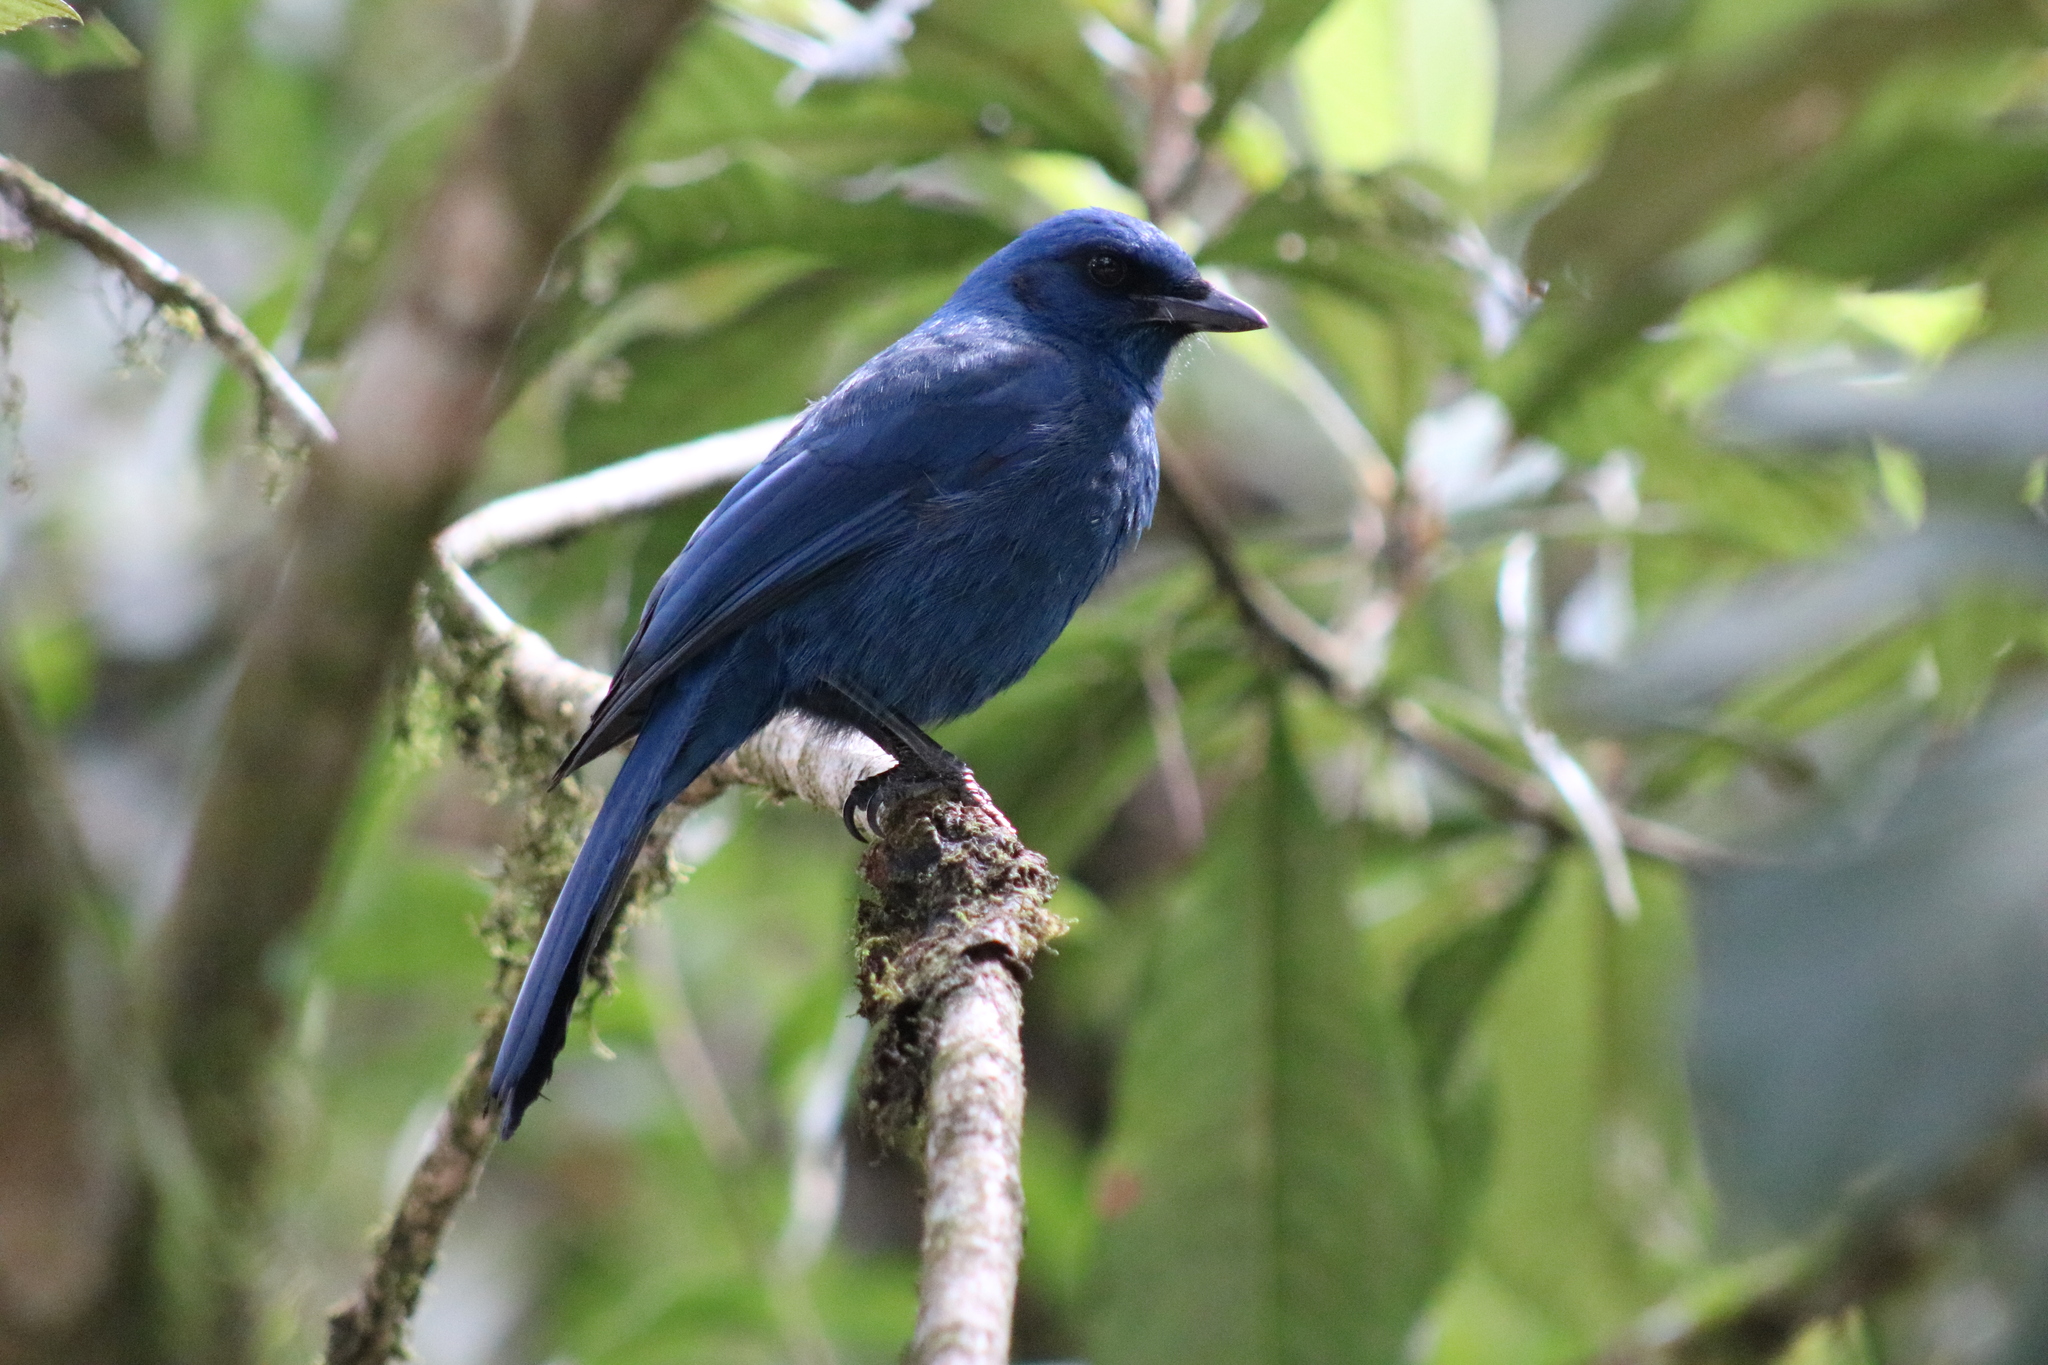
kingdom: Animalia
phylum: Chordata
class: Aves
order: Passeriformes
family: Corvidae
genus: Aphelocoma
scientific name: Aphelocoma unicolor
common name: Unicolored jay
